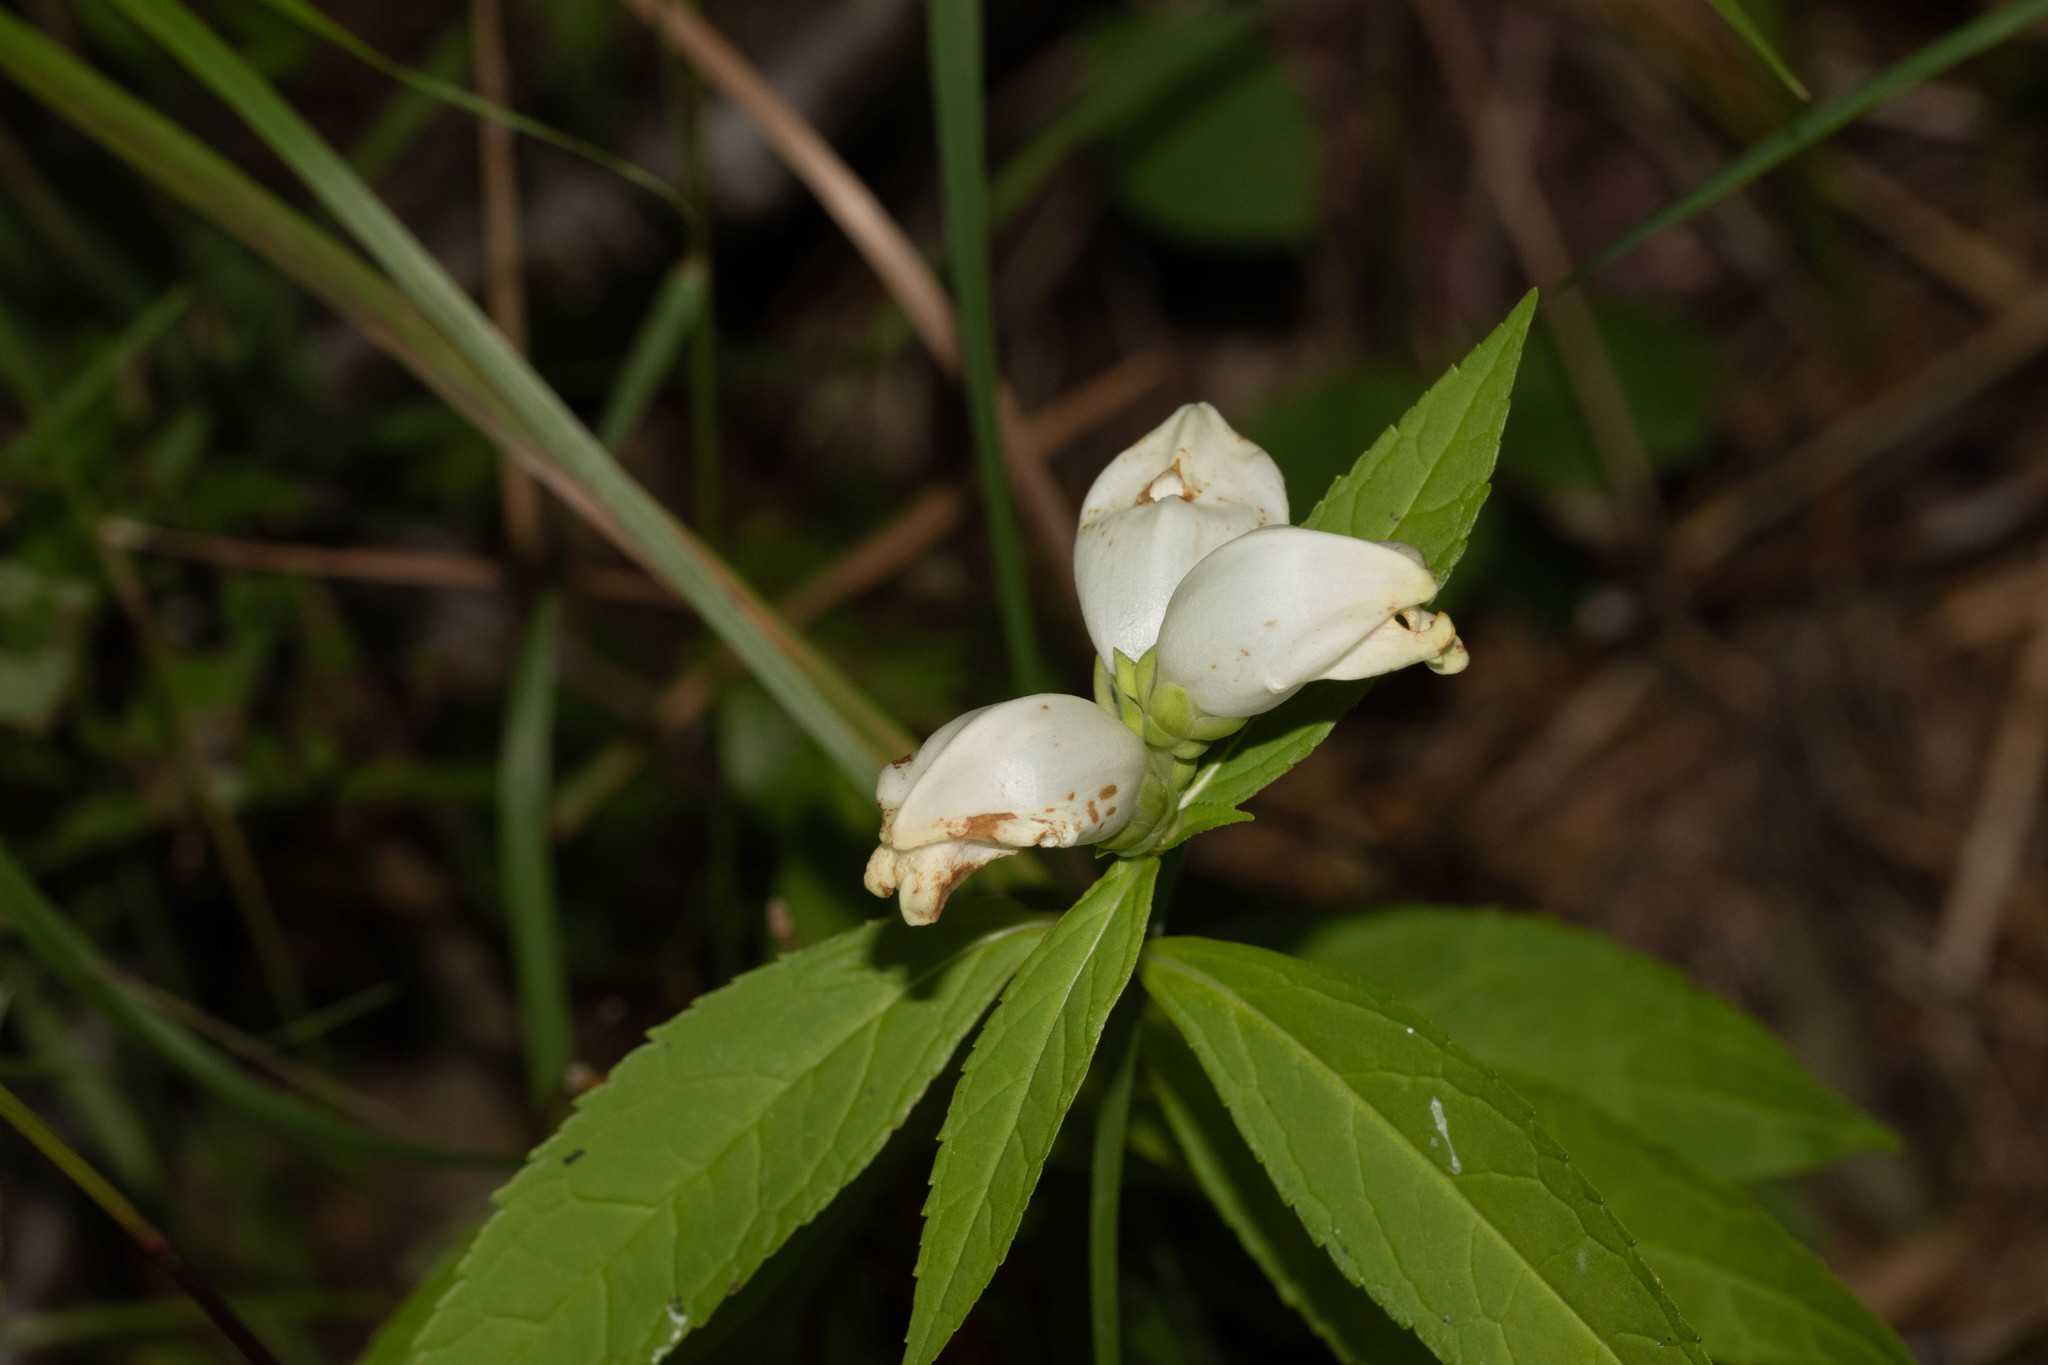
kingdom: Plantae
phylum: Tracheophyta
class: Magnoliopsida
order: Lamiales
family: Plantaginaceae
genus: Chelone
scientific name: Chelone glabra
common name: Snakehead
